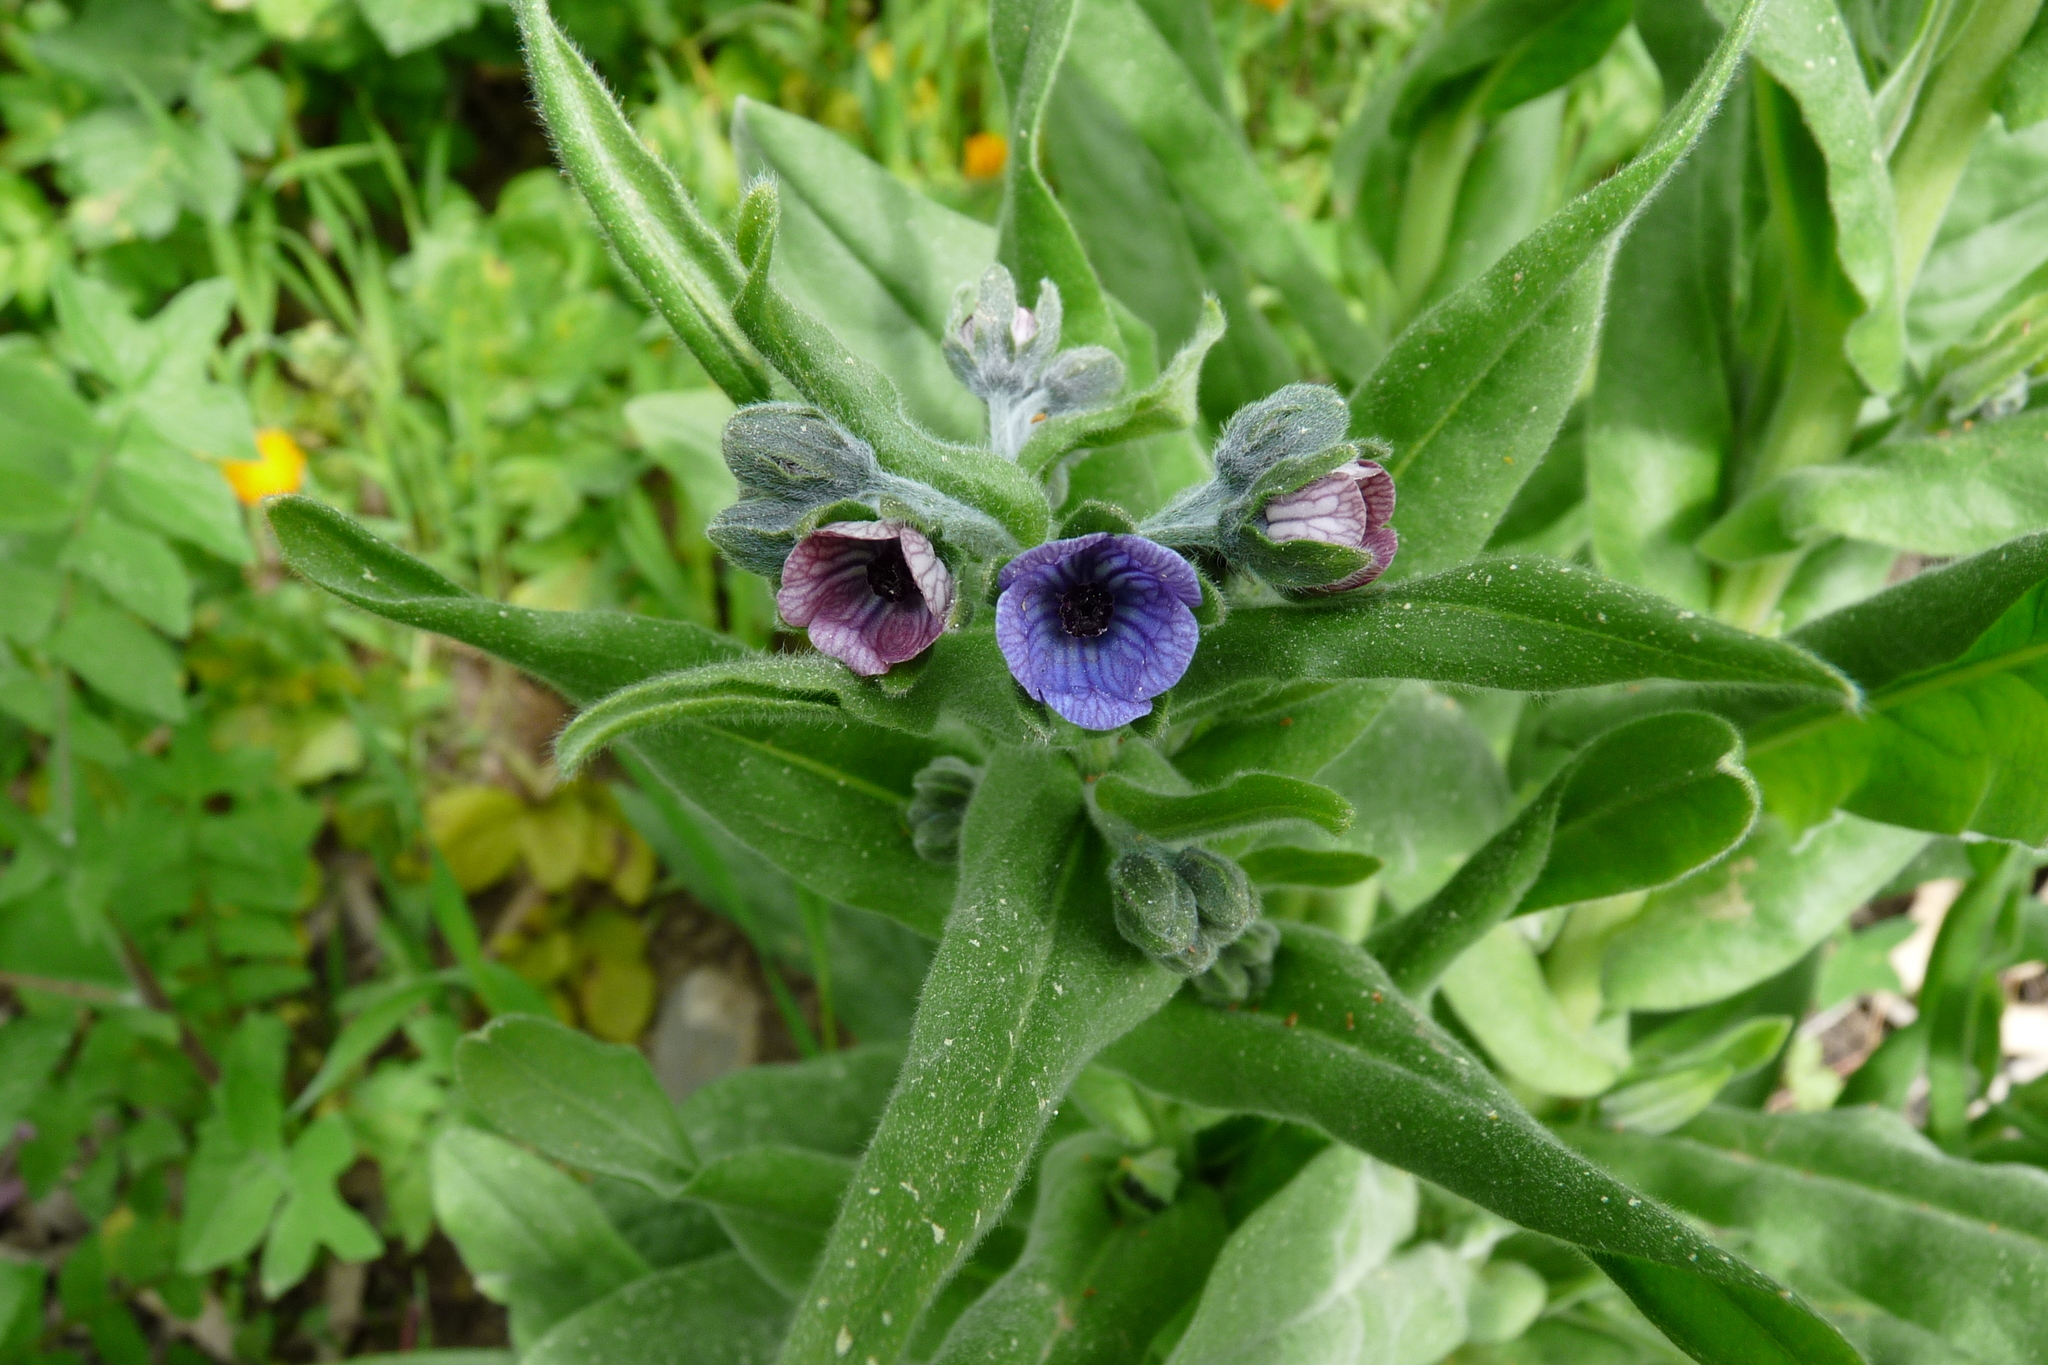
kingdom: Plantae
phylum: Tracheophyta
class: Magnoliopsida
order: Boraginales
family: Boraginaceae
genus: Cynoglossum
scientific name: Cynoglossum creticum
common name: Blue hound's tongue
